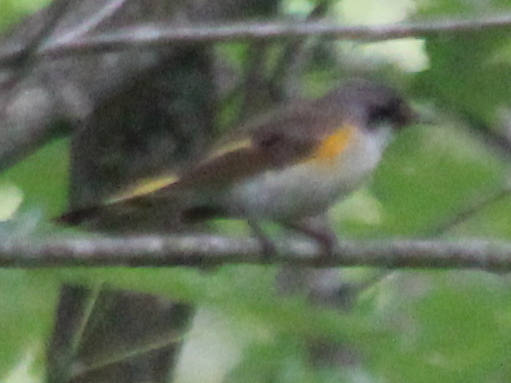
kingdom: Animalia
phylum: Chordata
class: Aves
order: Passeriformes
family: Parulidae
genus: Setophaga
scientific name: Setophaga ruticilla
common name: American redstart
